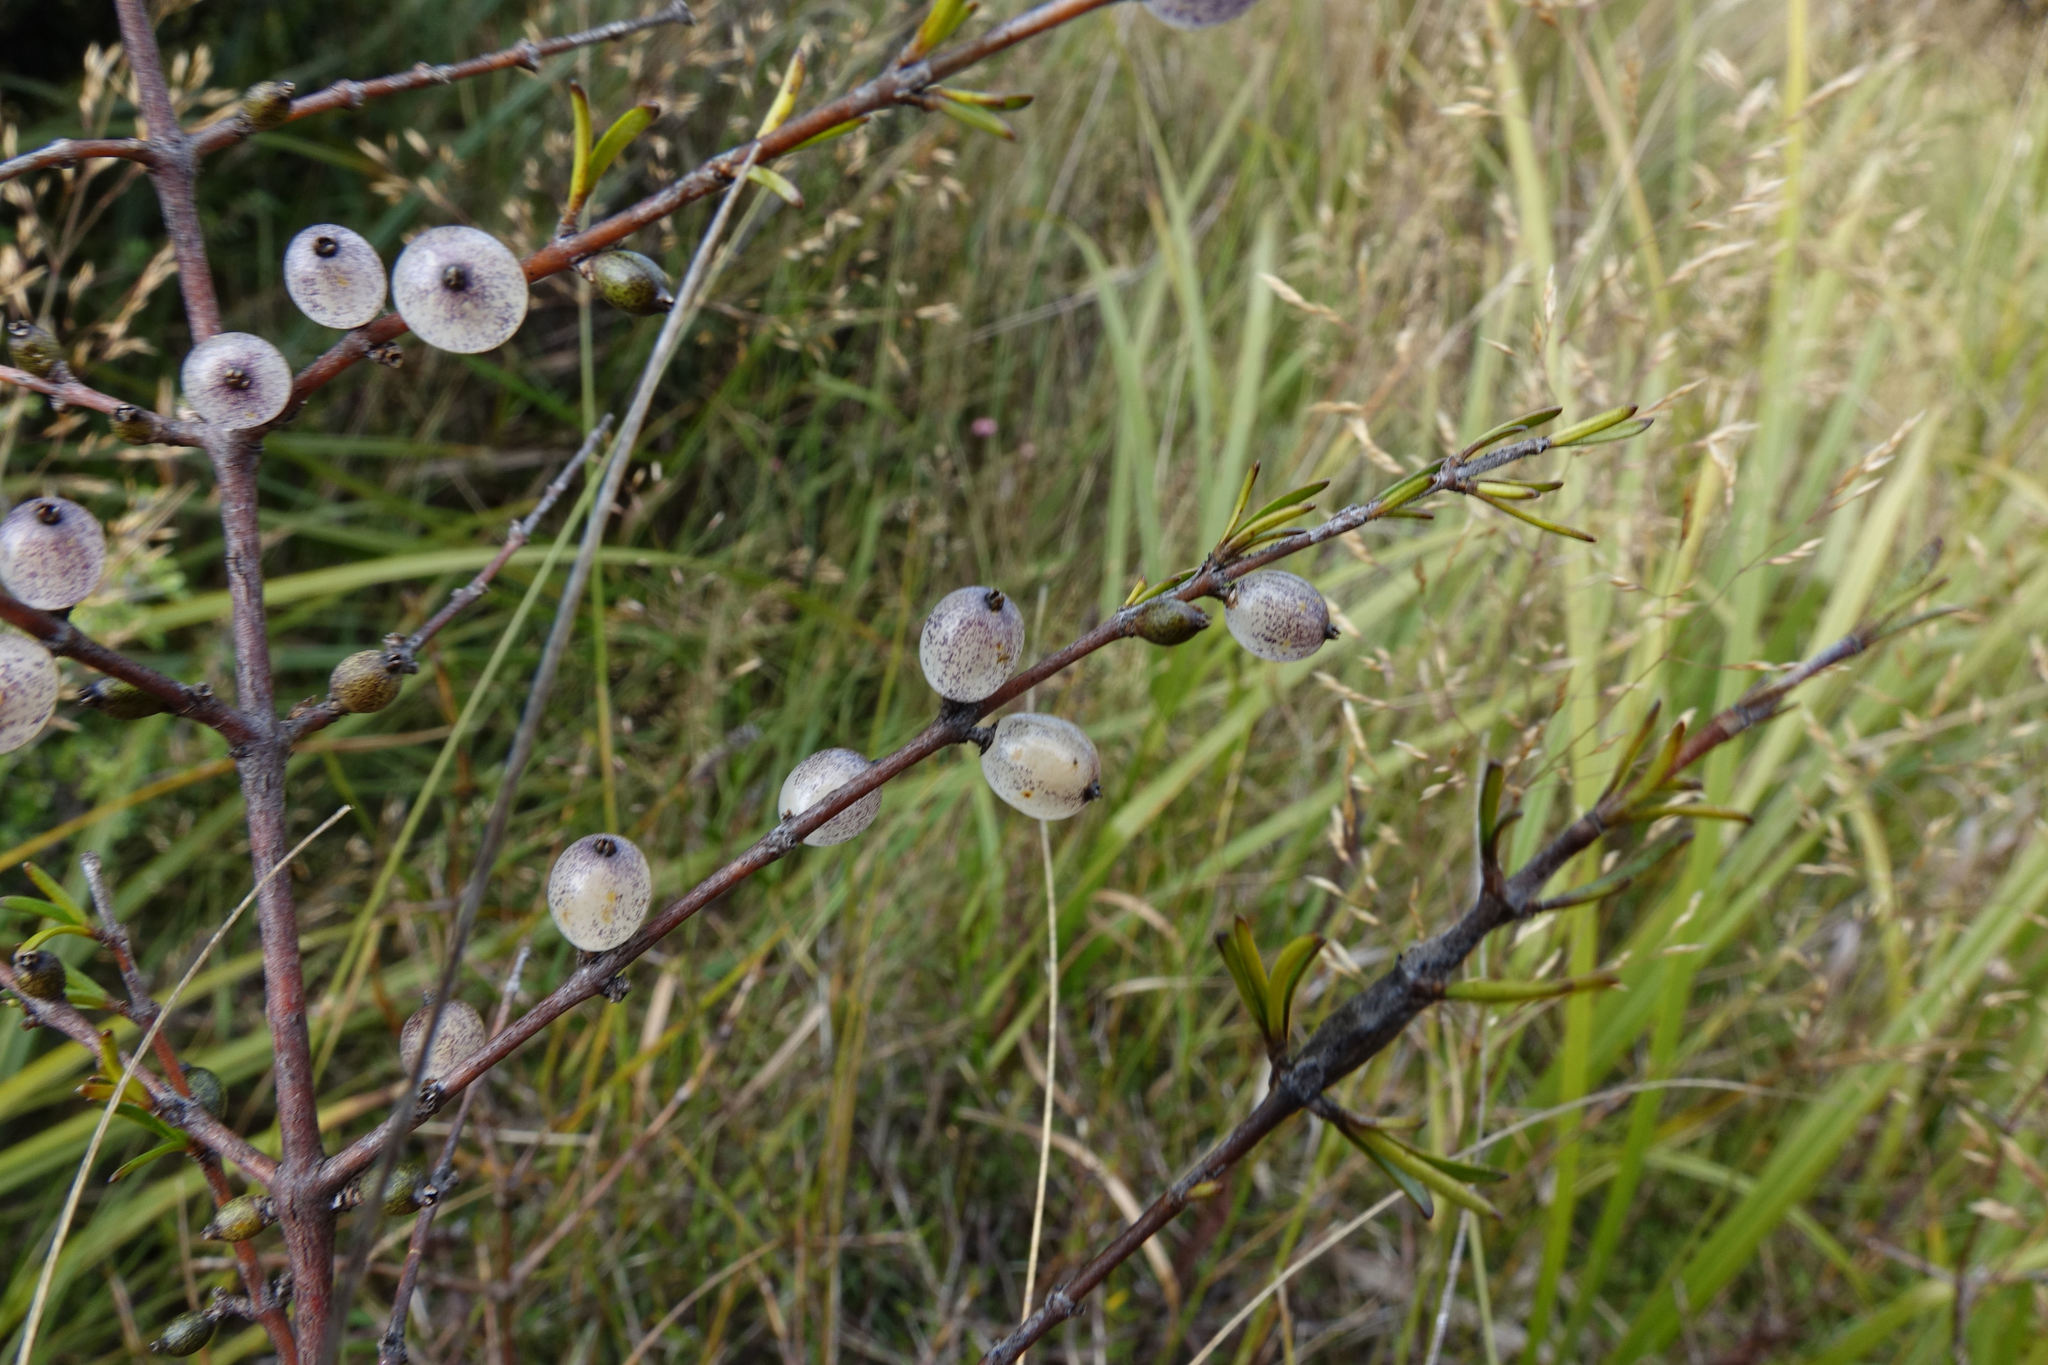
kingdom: Plantae
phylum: Tracheophyta
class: Magnoliopsida
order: Gentianales
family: Rubiaceae
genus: Coprosma
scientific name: Coprosma elatirioides
